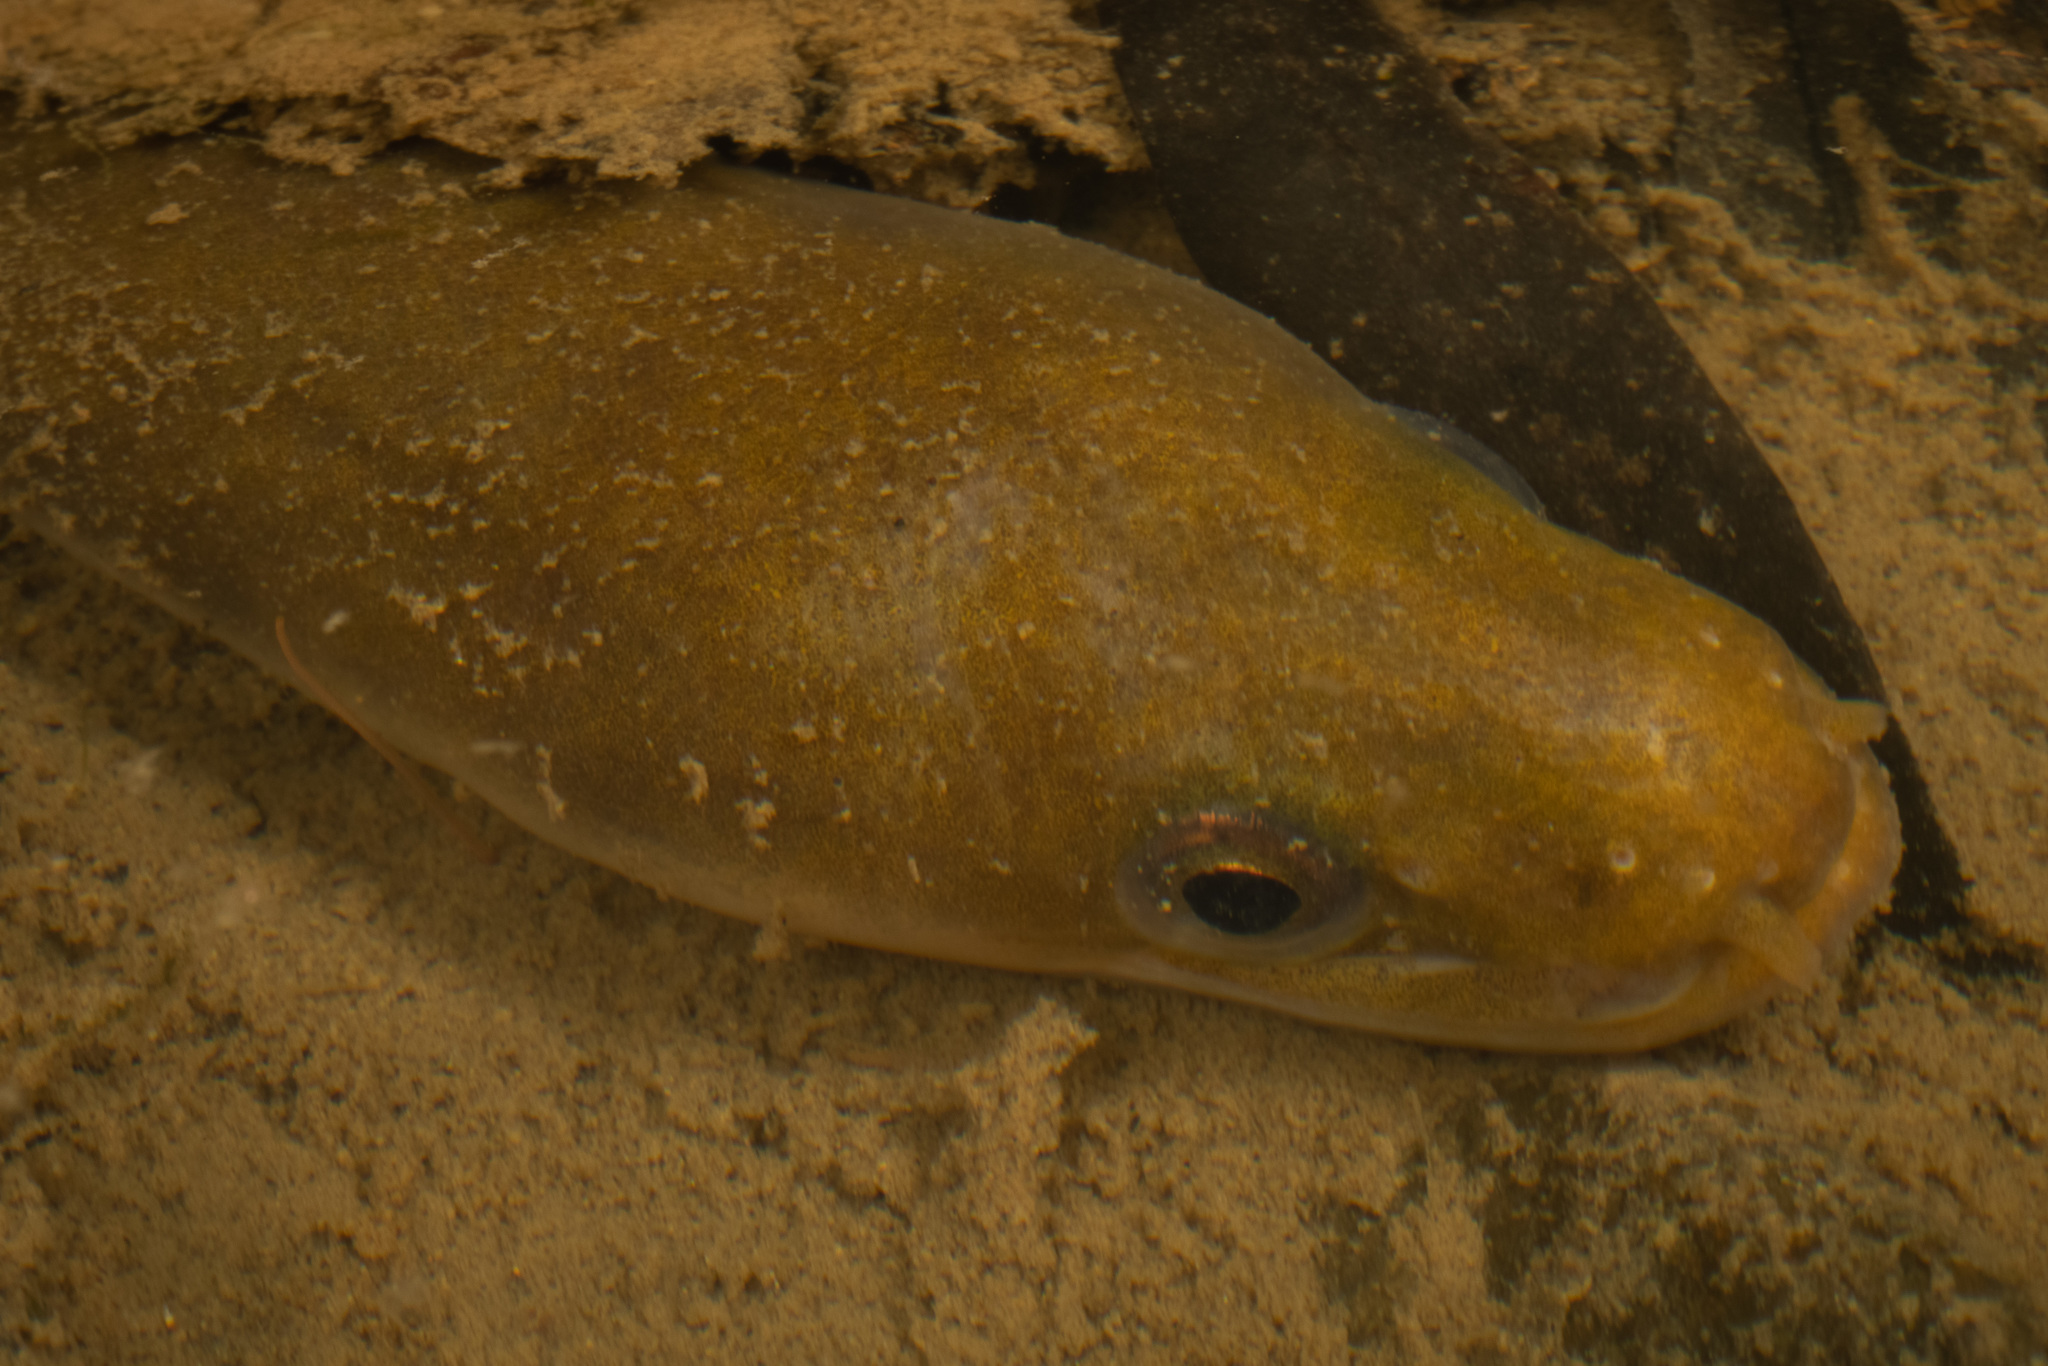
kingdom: Animalia
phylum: Chordata
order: Anguilliformes
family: Anguillidae
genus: Anguilla
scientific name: Anguilla australis
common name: Shortfin eel
